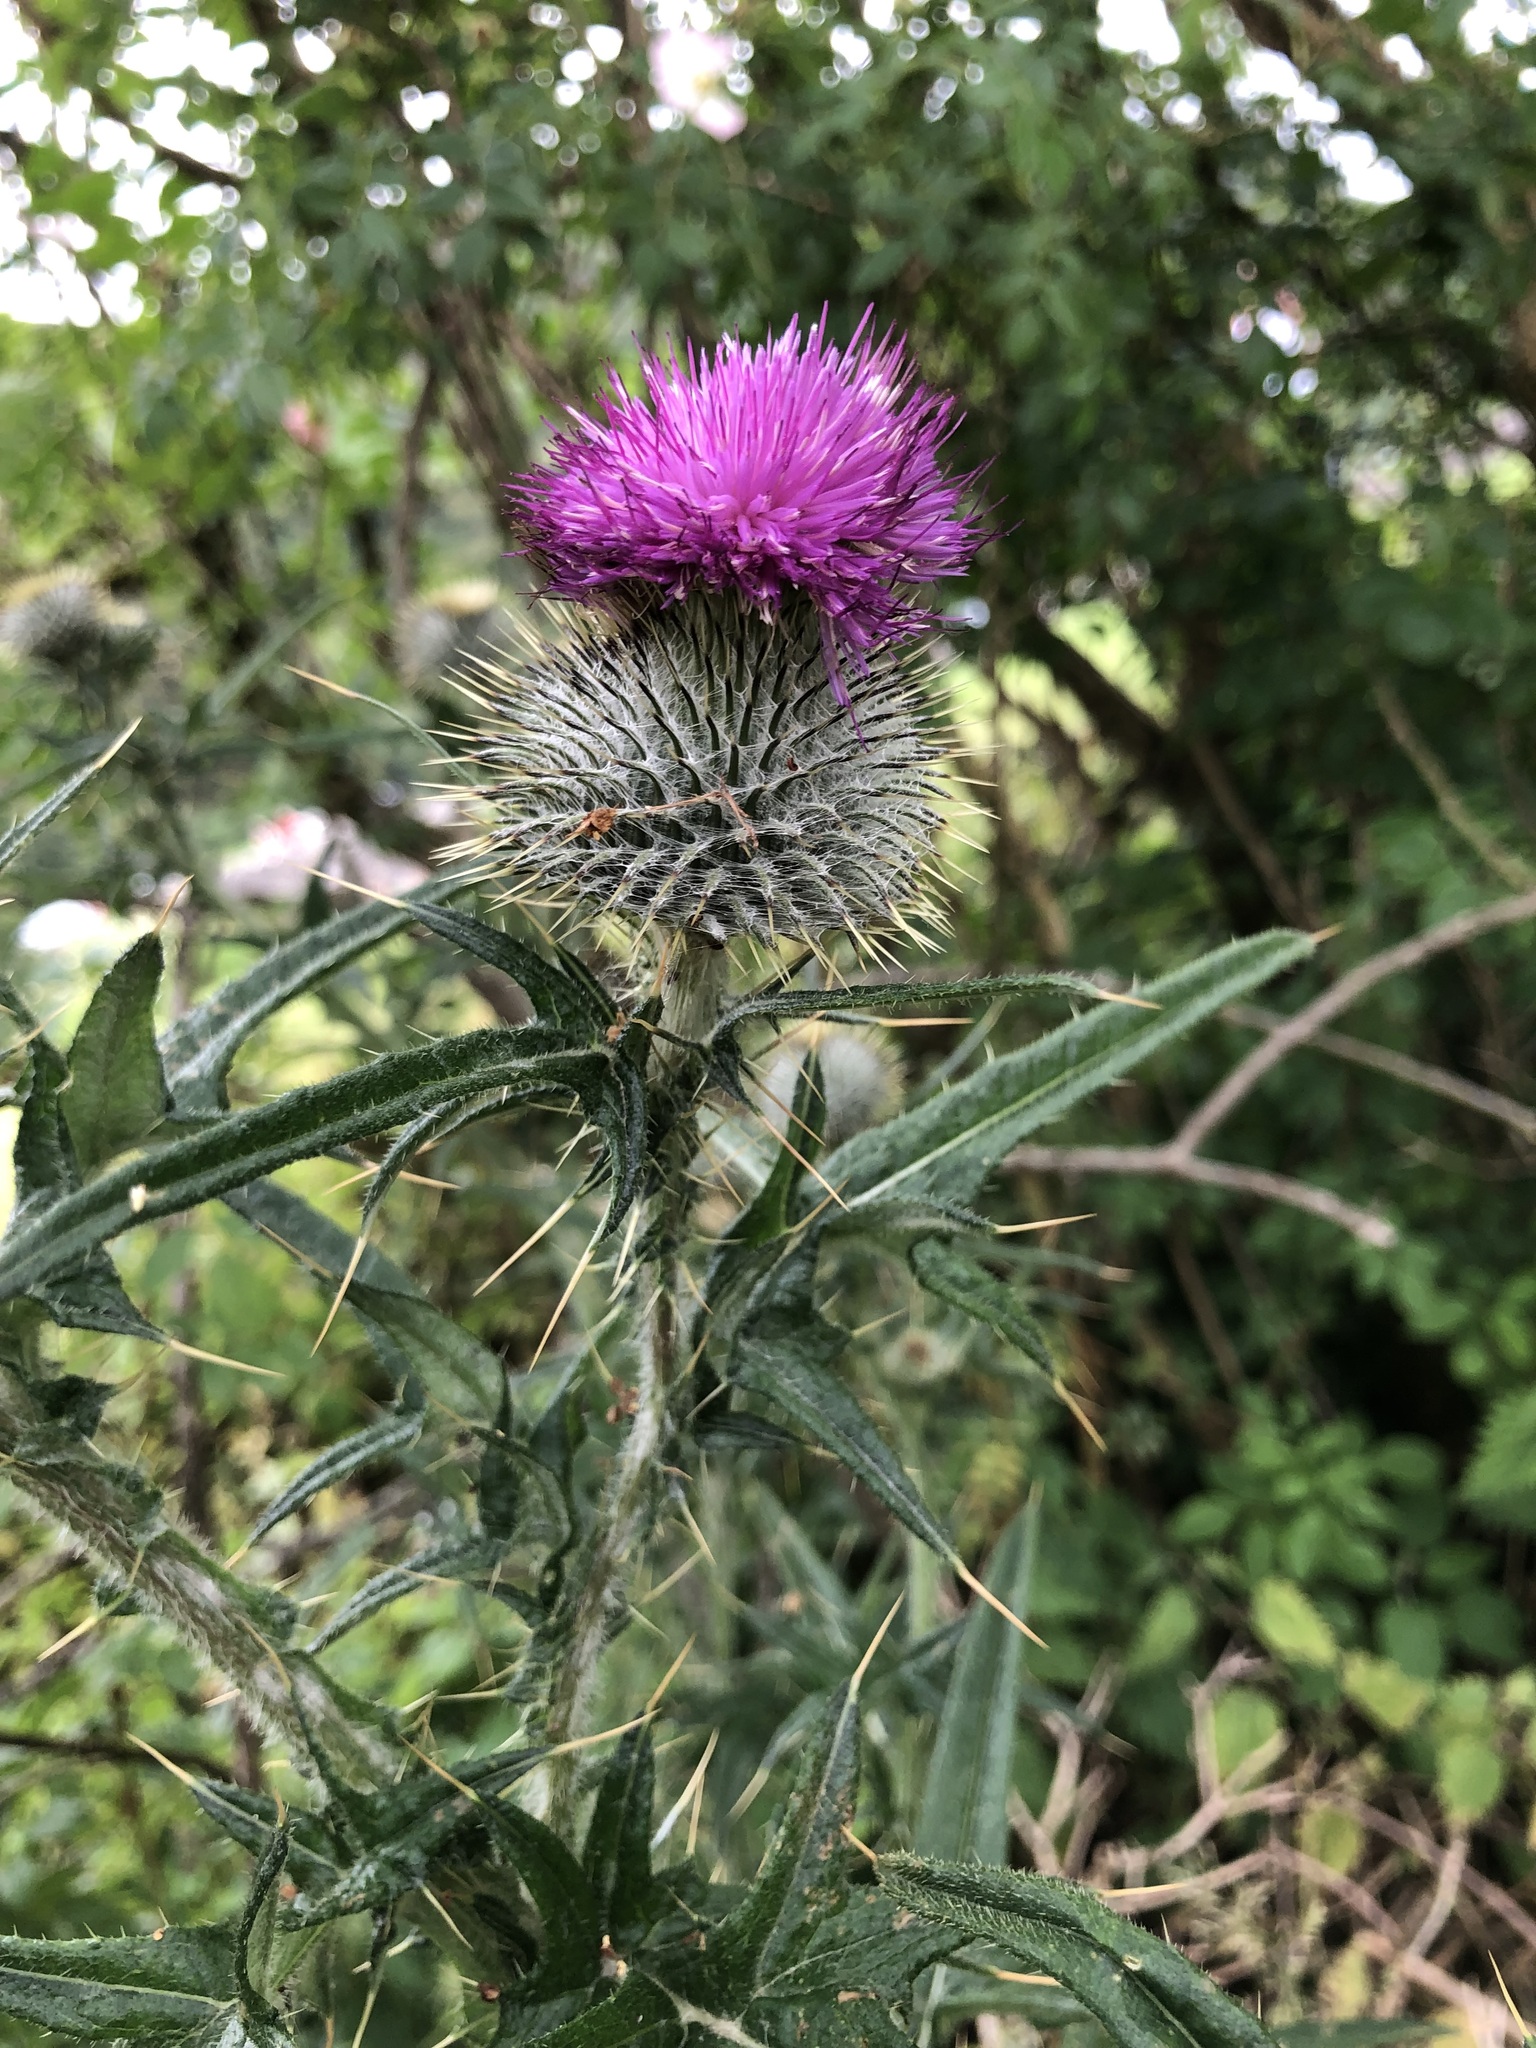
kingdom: Plantae
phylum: Tracheophyta
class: Magnoliopsida
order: Asterales
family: Asteraceae
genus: Cirsium
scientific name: Cirsium vulgare
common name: Bull thistle
